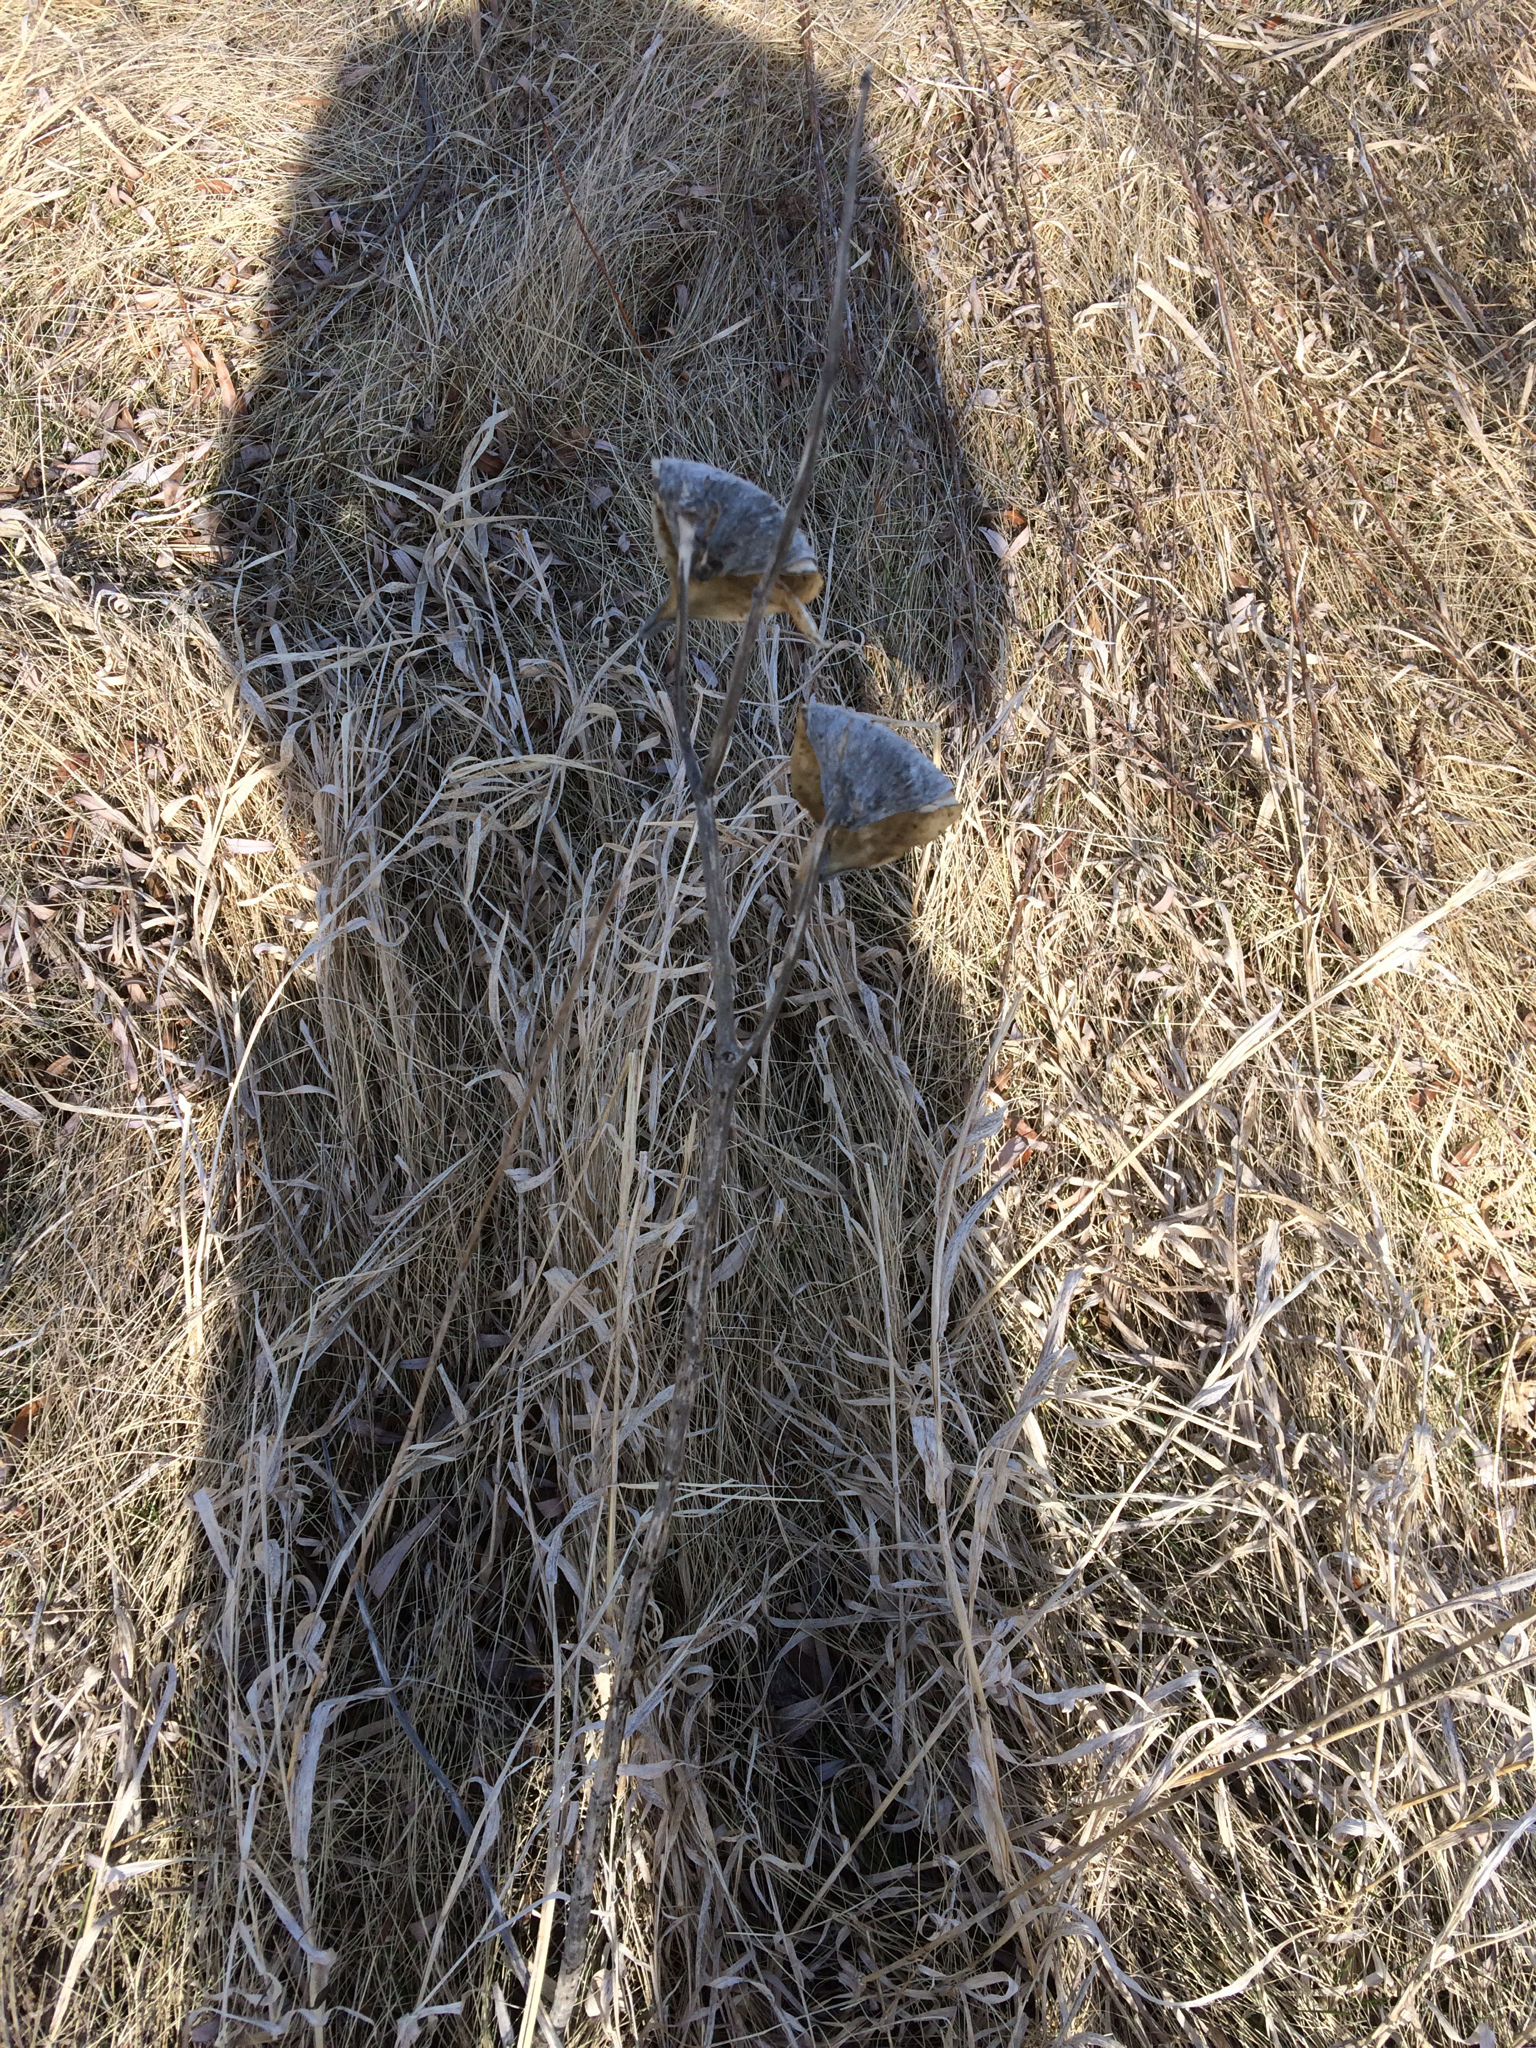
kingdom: Plantae
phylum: Tracheophyta
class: Magnoliopsida
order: Gentianales
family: Apocynaceae
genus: Asclepias
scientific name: Asclepias syriaca
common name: Common milkweed
